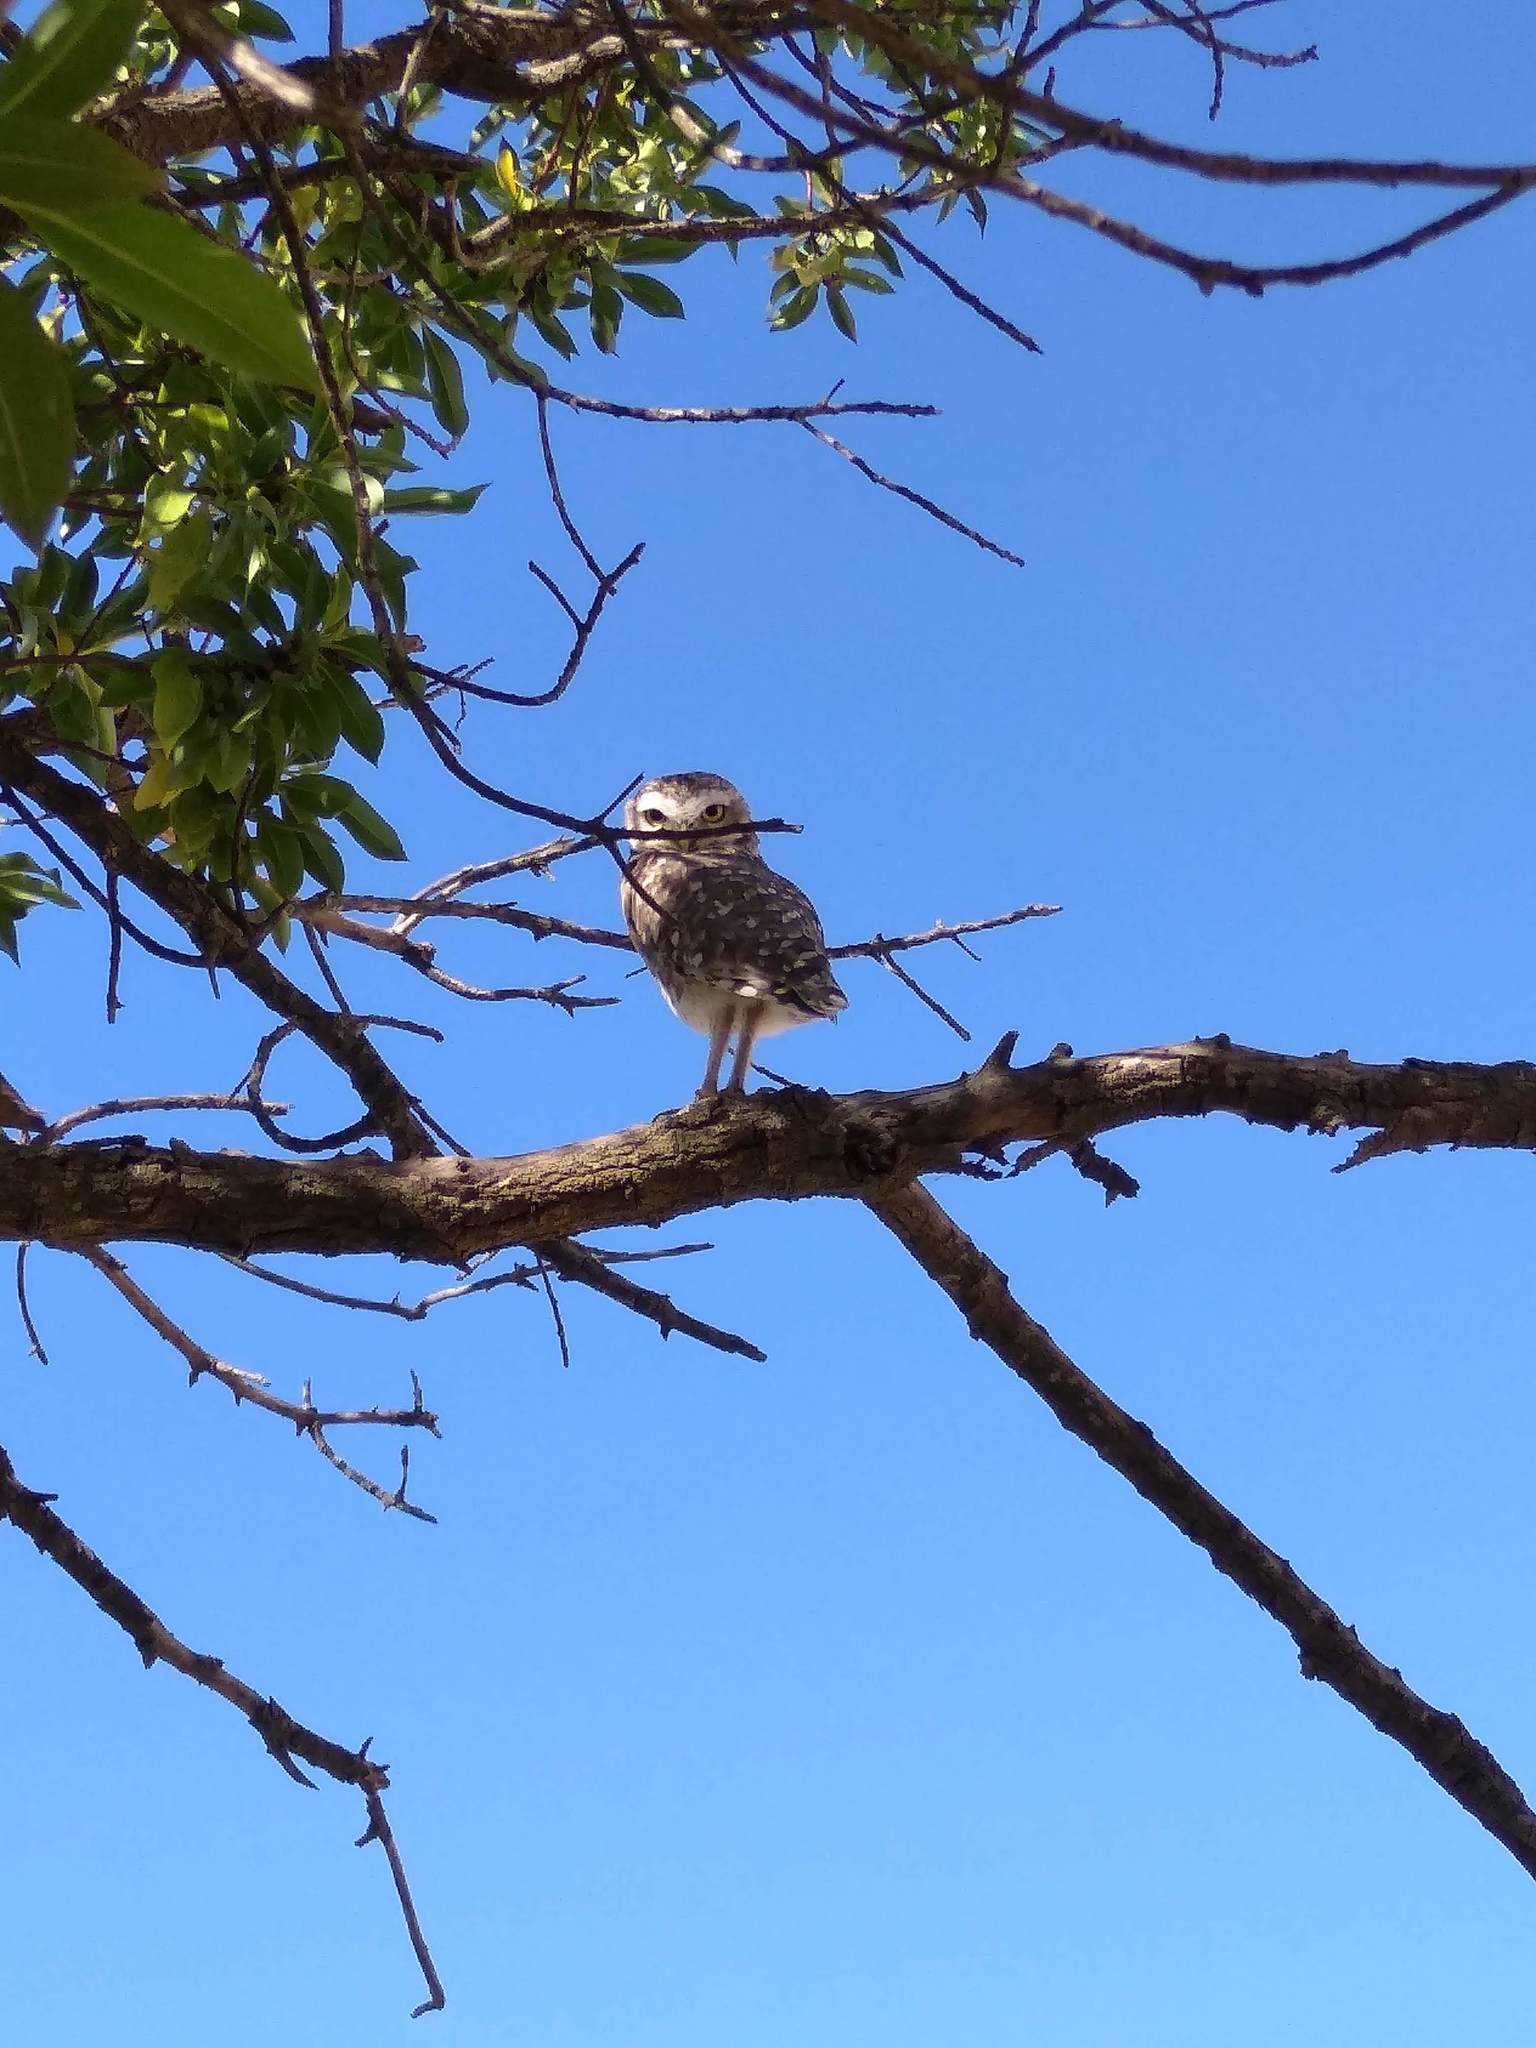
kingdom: Animalia
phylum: Chordata
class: Aves
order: Strigiformes
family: Strigidae
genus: Athene
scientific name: Athene cunicularia
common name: Burrowing owl
